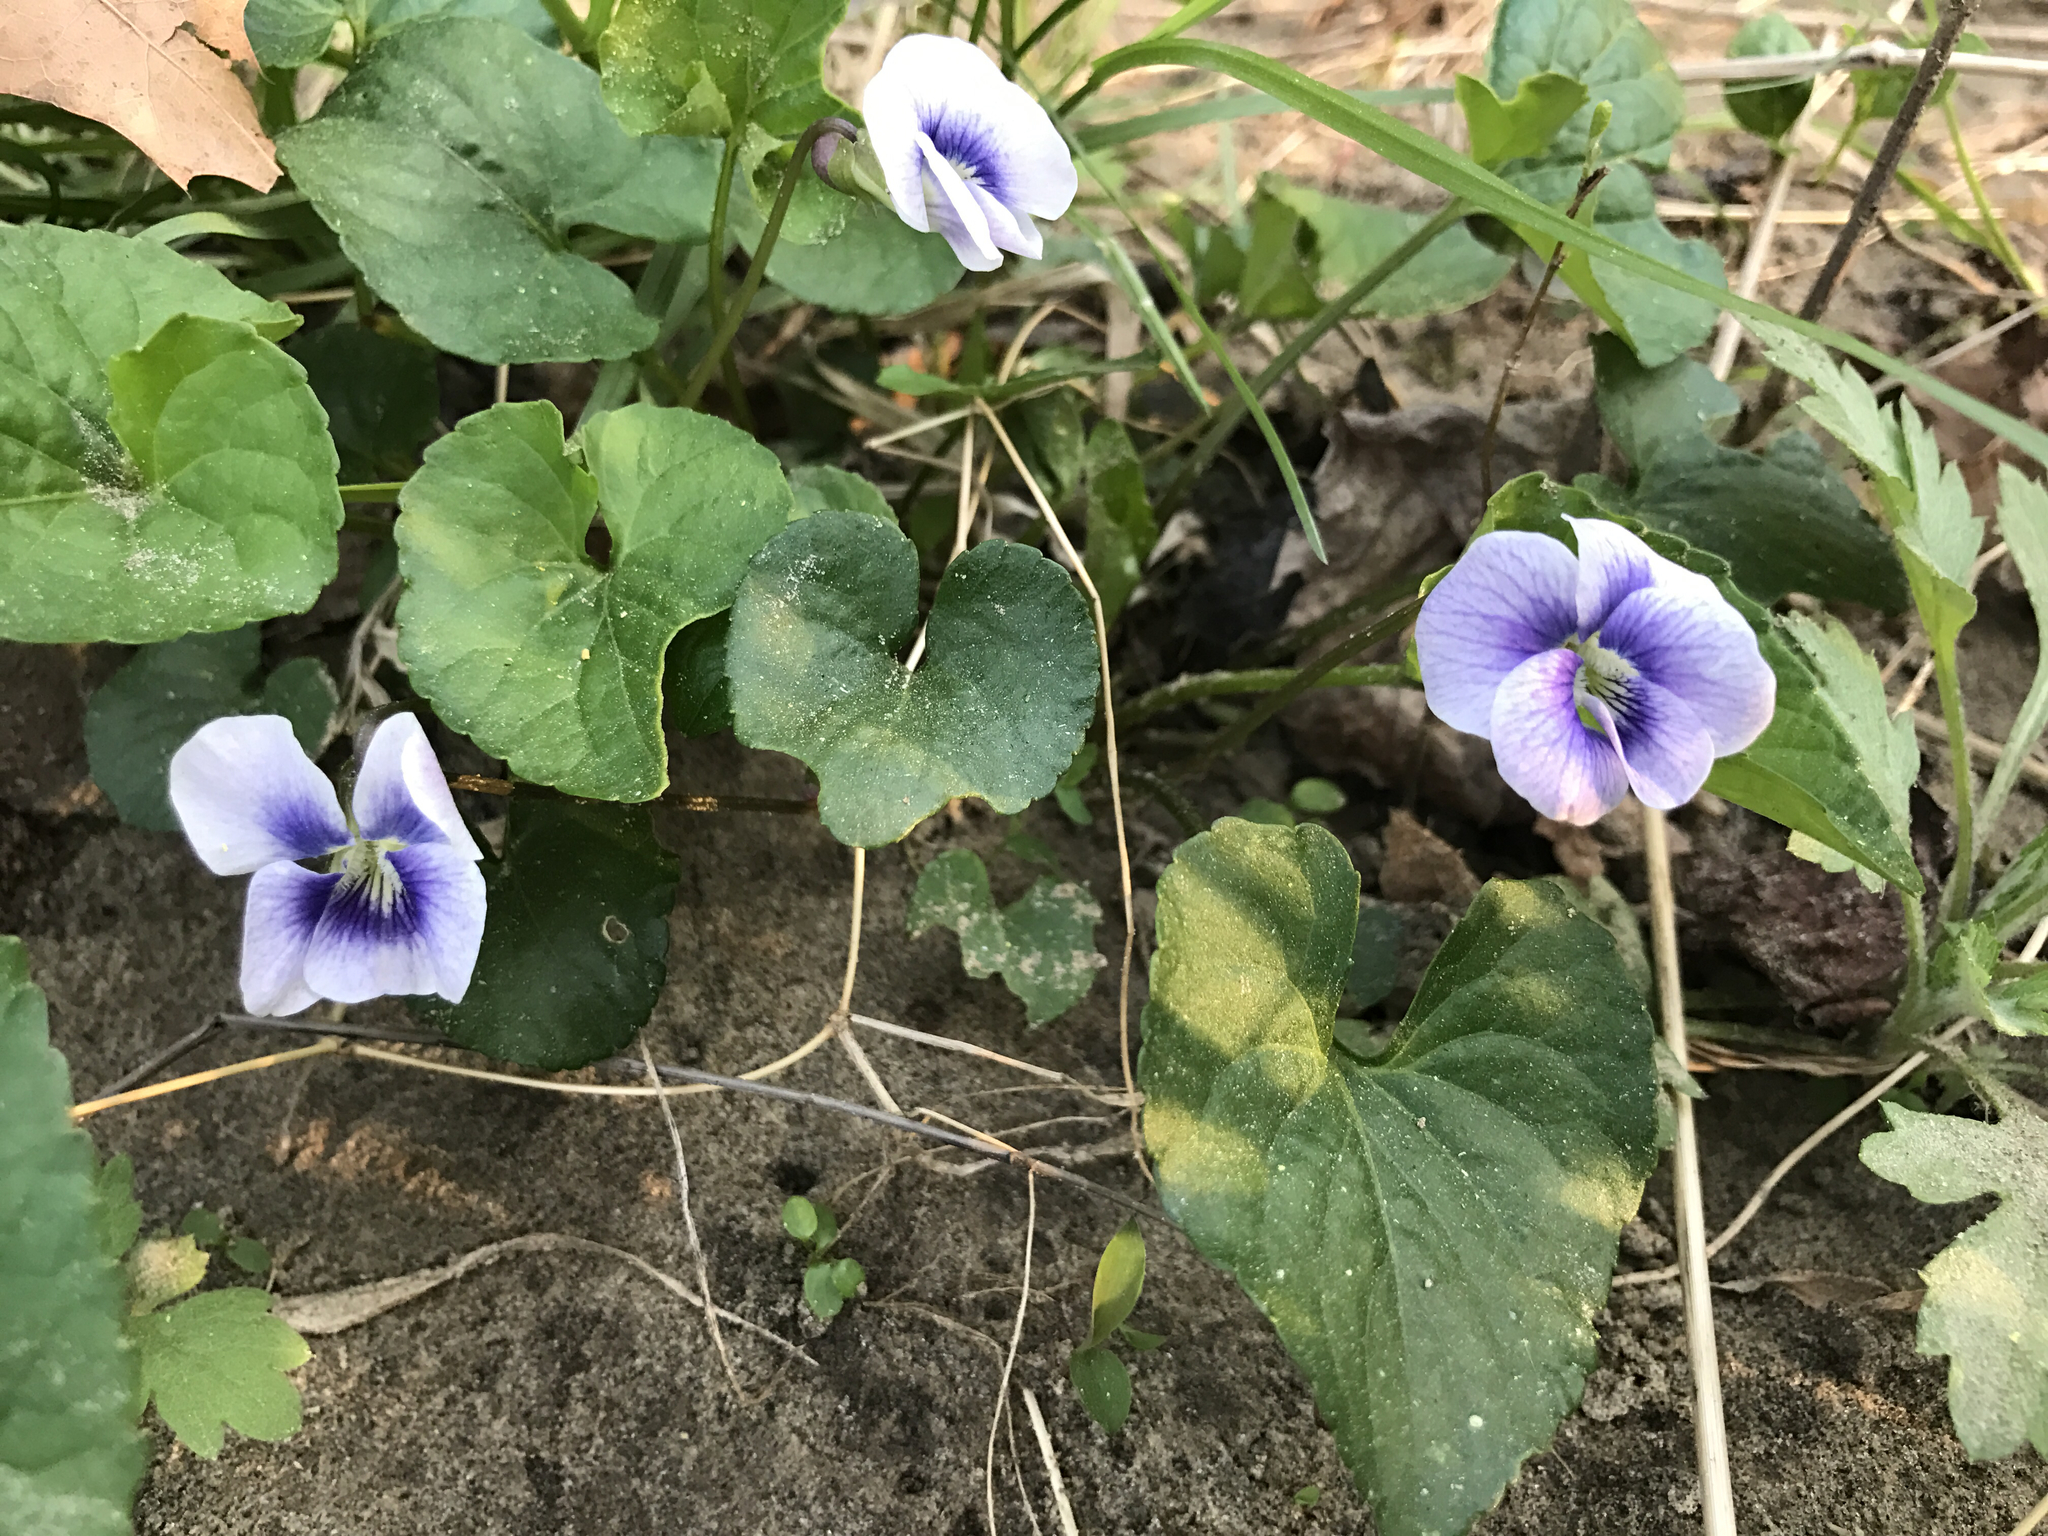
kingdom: Plantae
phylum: Tracheophyta
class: Magnoliopsida
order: Malpighiales
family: Violaceae
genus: Viola
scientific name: Viola sororia
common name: Dooryard violet
